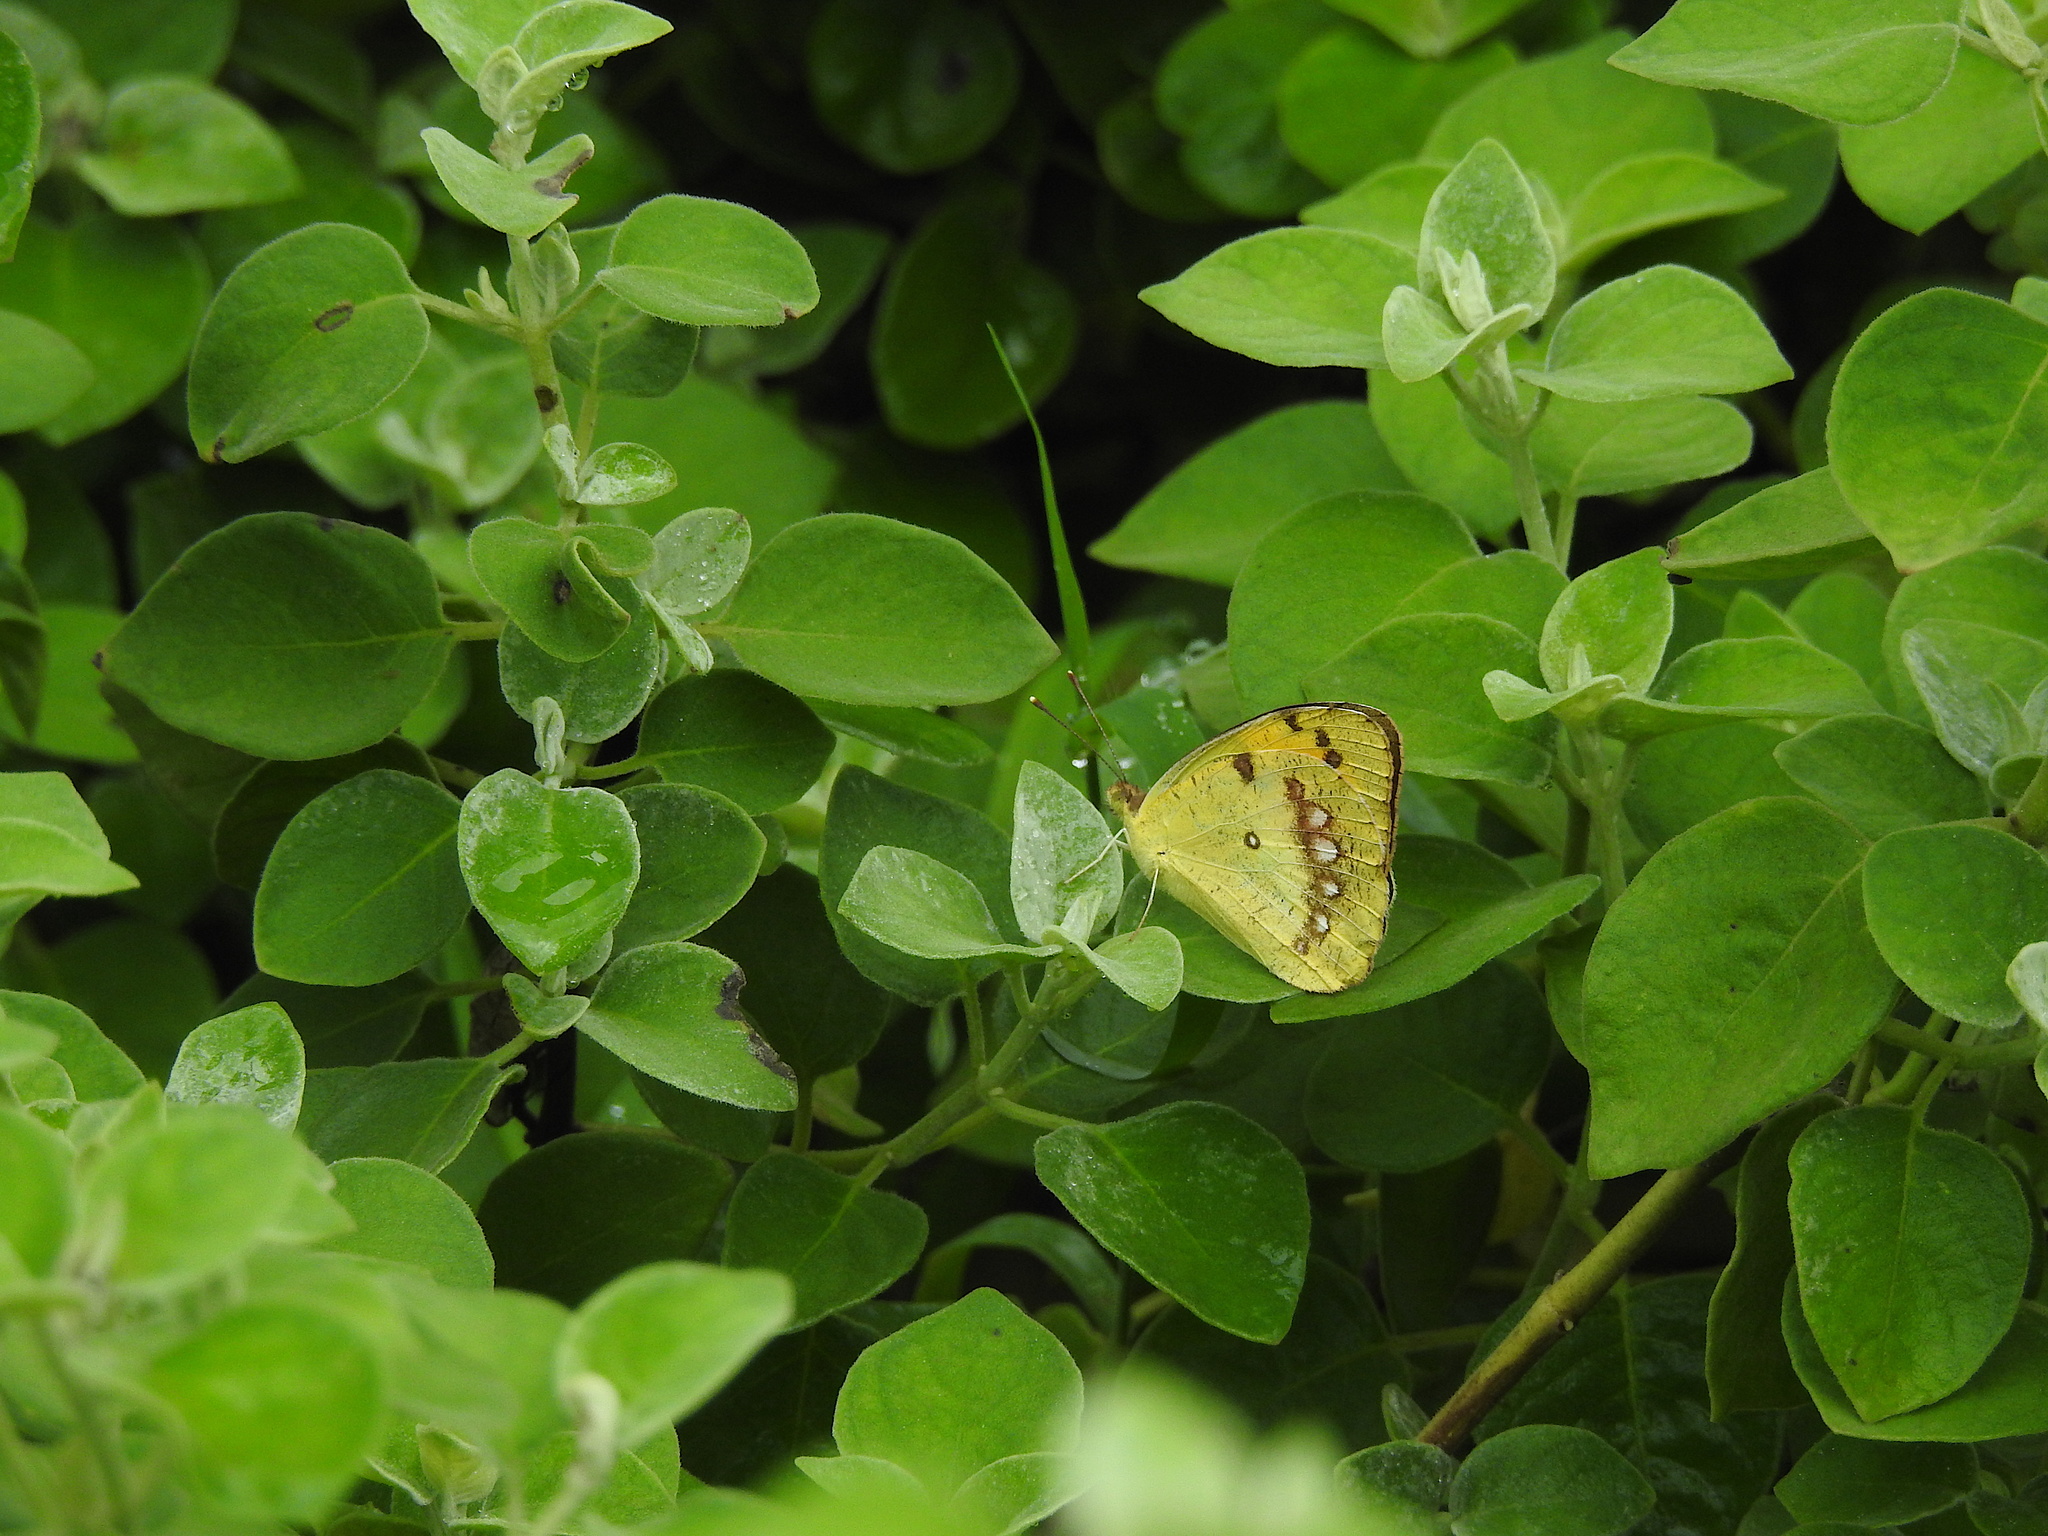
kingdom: Animalia
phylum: Arthropoda
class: Insecta
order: Lepidoptera
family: Pieridae
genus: Ixias
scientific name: Ixias marianne
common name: White orange tip
